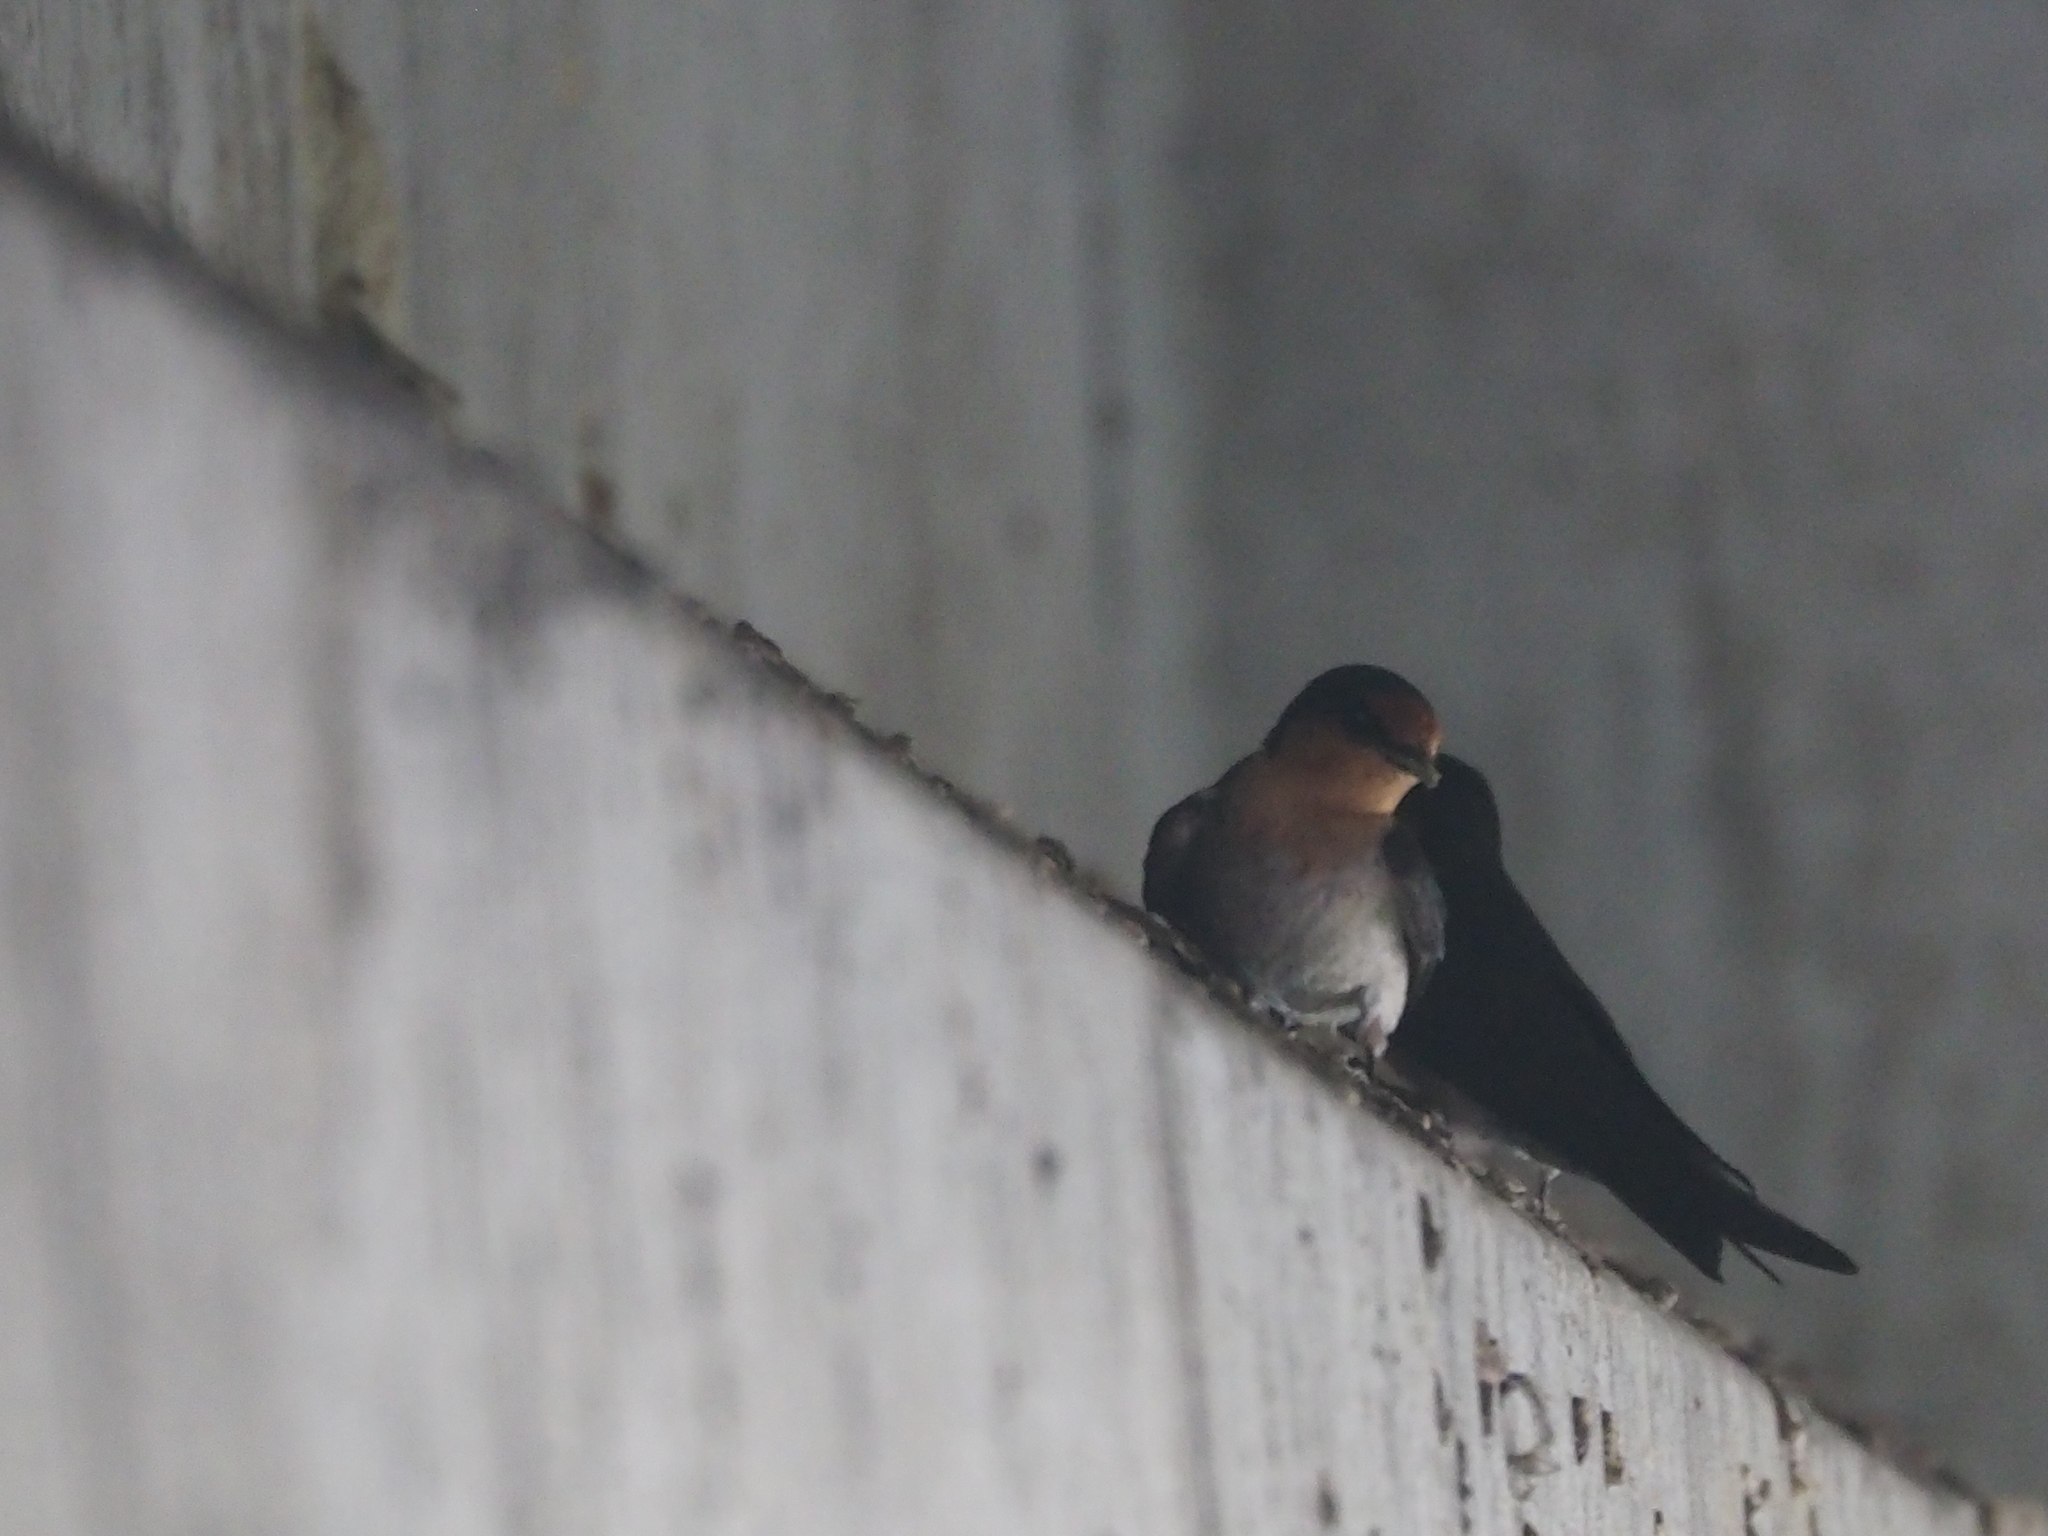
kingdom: Animalia
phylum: Chordata
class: Aves
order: Passeriformes
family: Hirundinidae
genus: Hirundo
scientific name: Hirundo tahitica
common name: Pacific swallow
